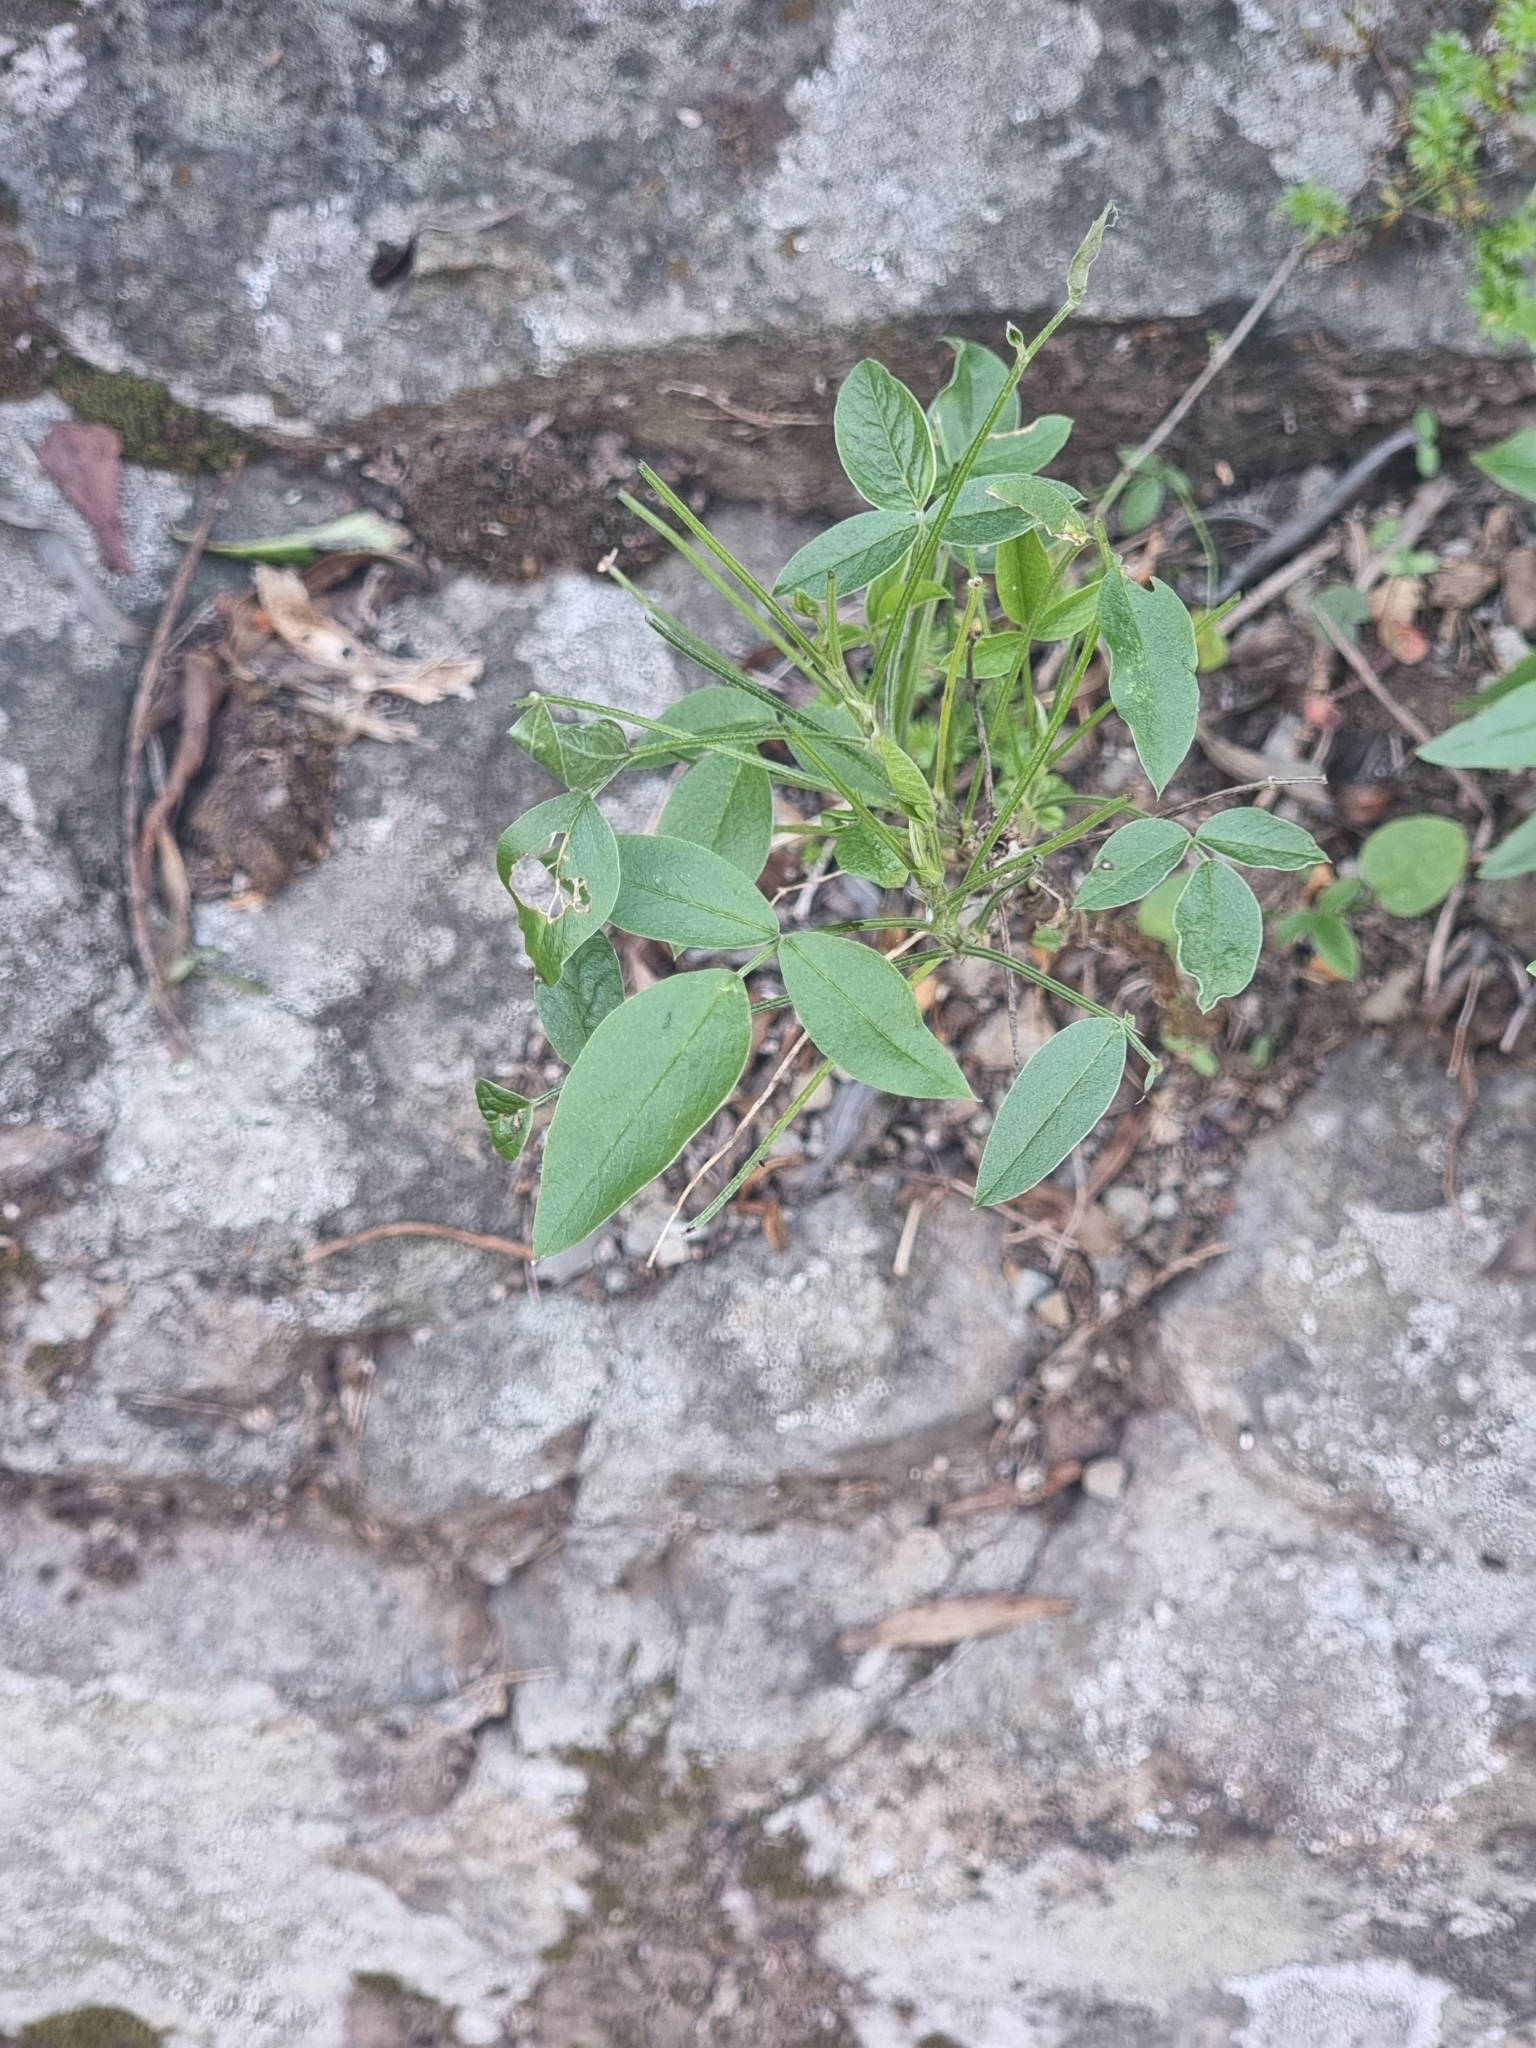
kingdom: Plantae
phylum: Tracheophyta
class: Magnoliopsida
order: Fabales
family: Fabaceae
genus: Bituminaria
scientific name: Bituminaria bituminosa
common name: Arabian pea
